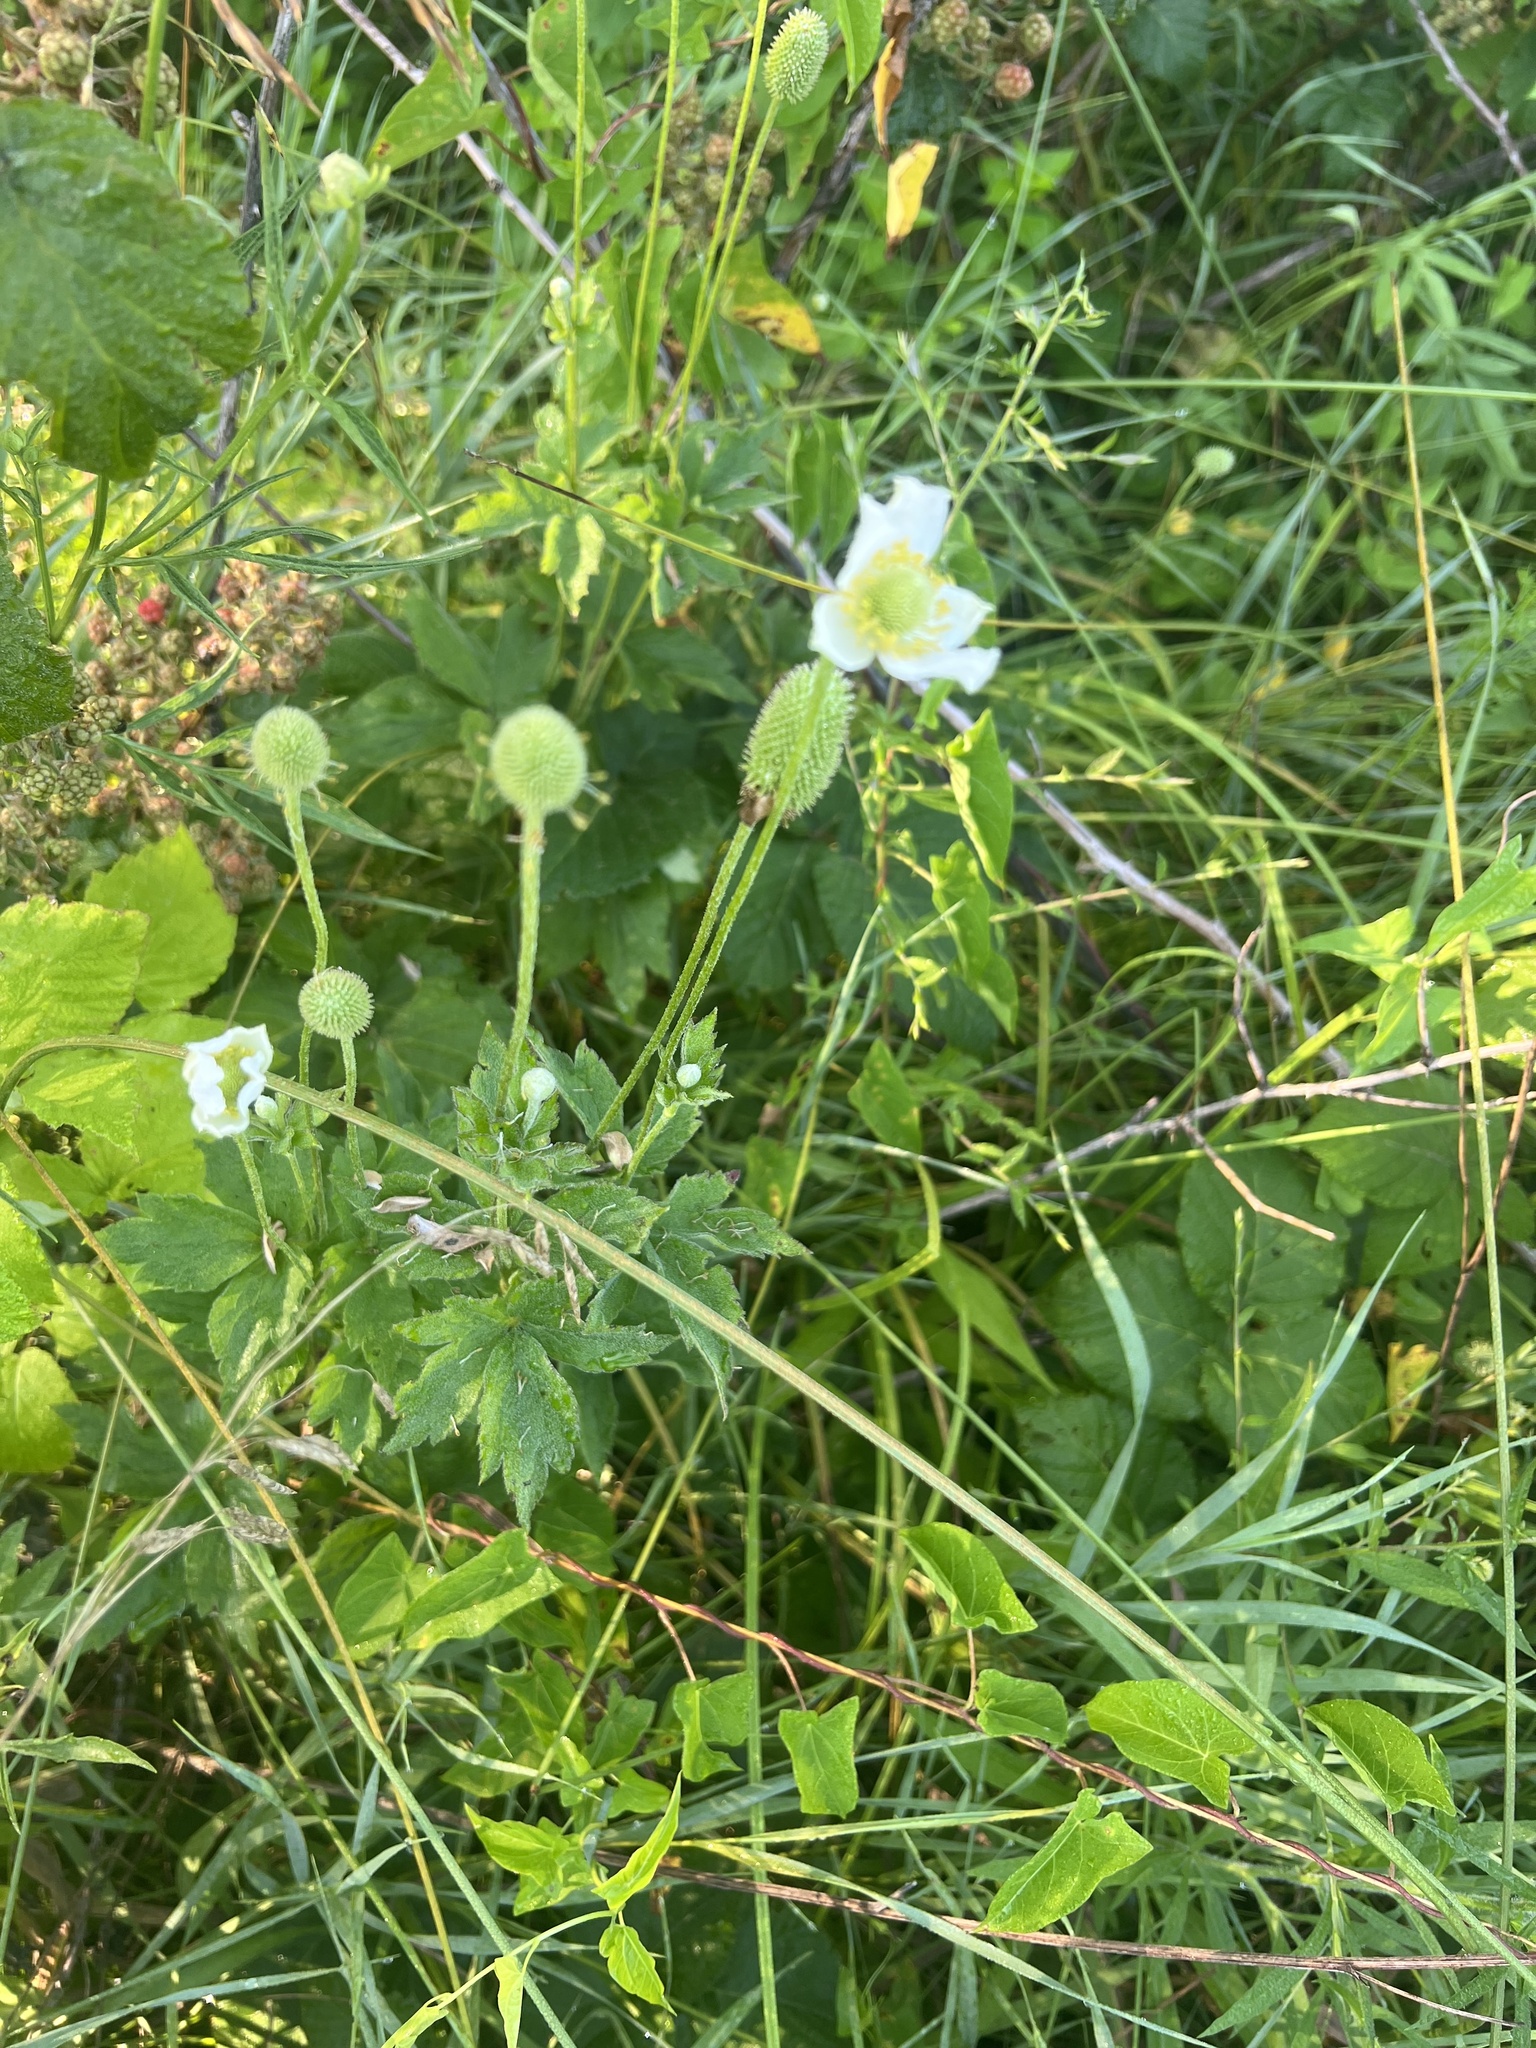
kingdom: Plantae
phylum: Tracheophyta
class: Magnoliopsida
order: Ranunculales
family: Ranunculaceae
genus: Anemone
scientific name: Anemone virginiana
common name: Tall anemone
